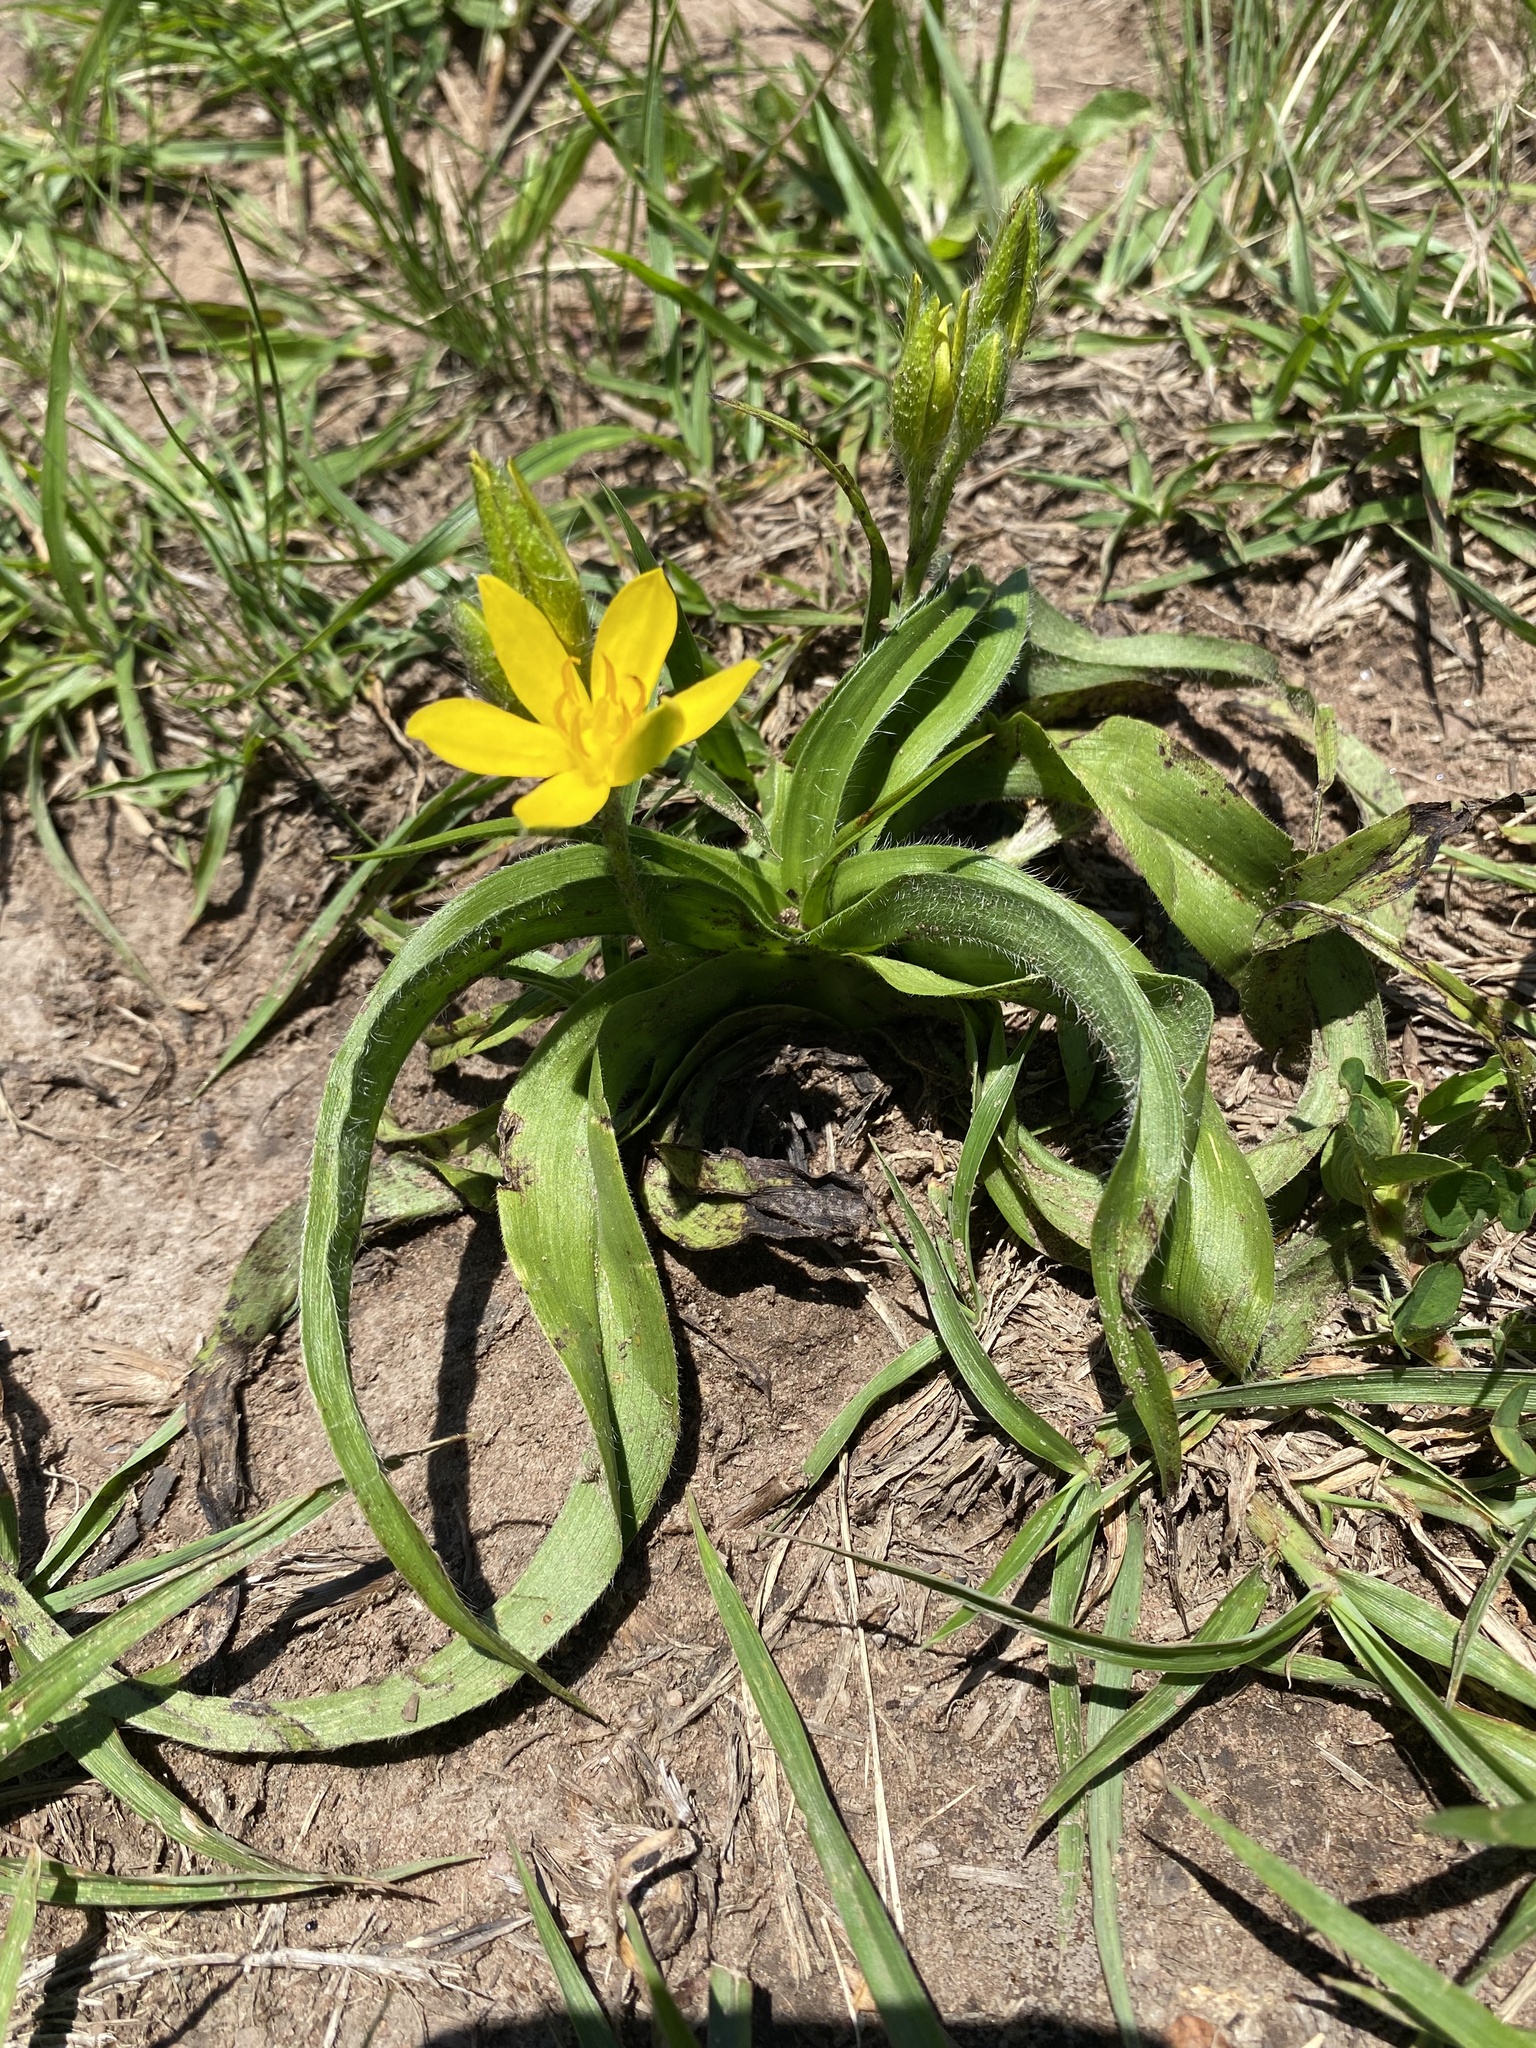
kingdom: Plantae
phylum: Tracheophyta
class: Liliopsida
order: Asparagales
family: Hypoxidaceae
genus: Hypoxis
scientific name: Hypoxis hemerocallidea
